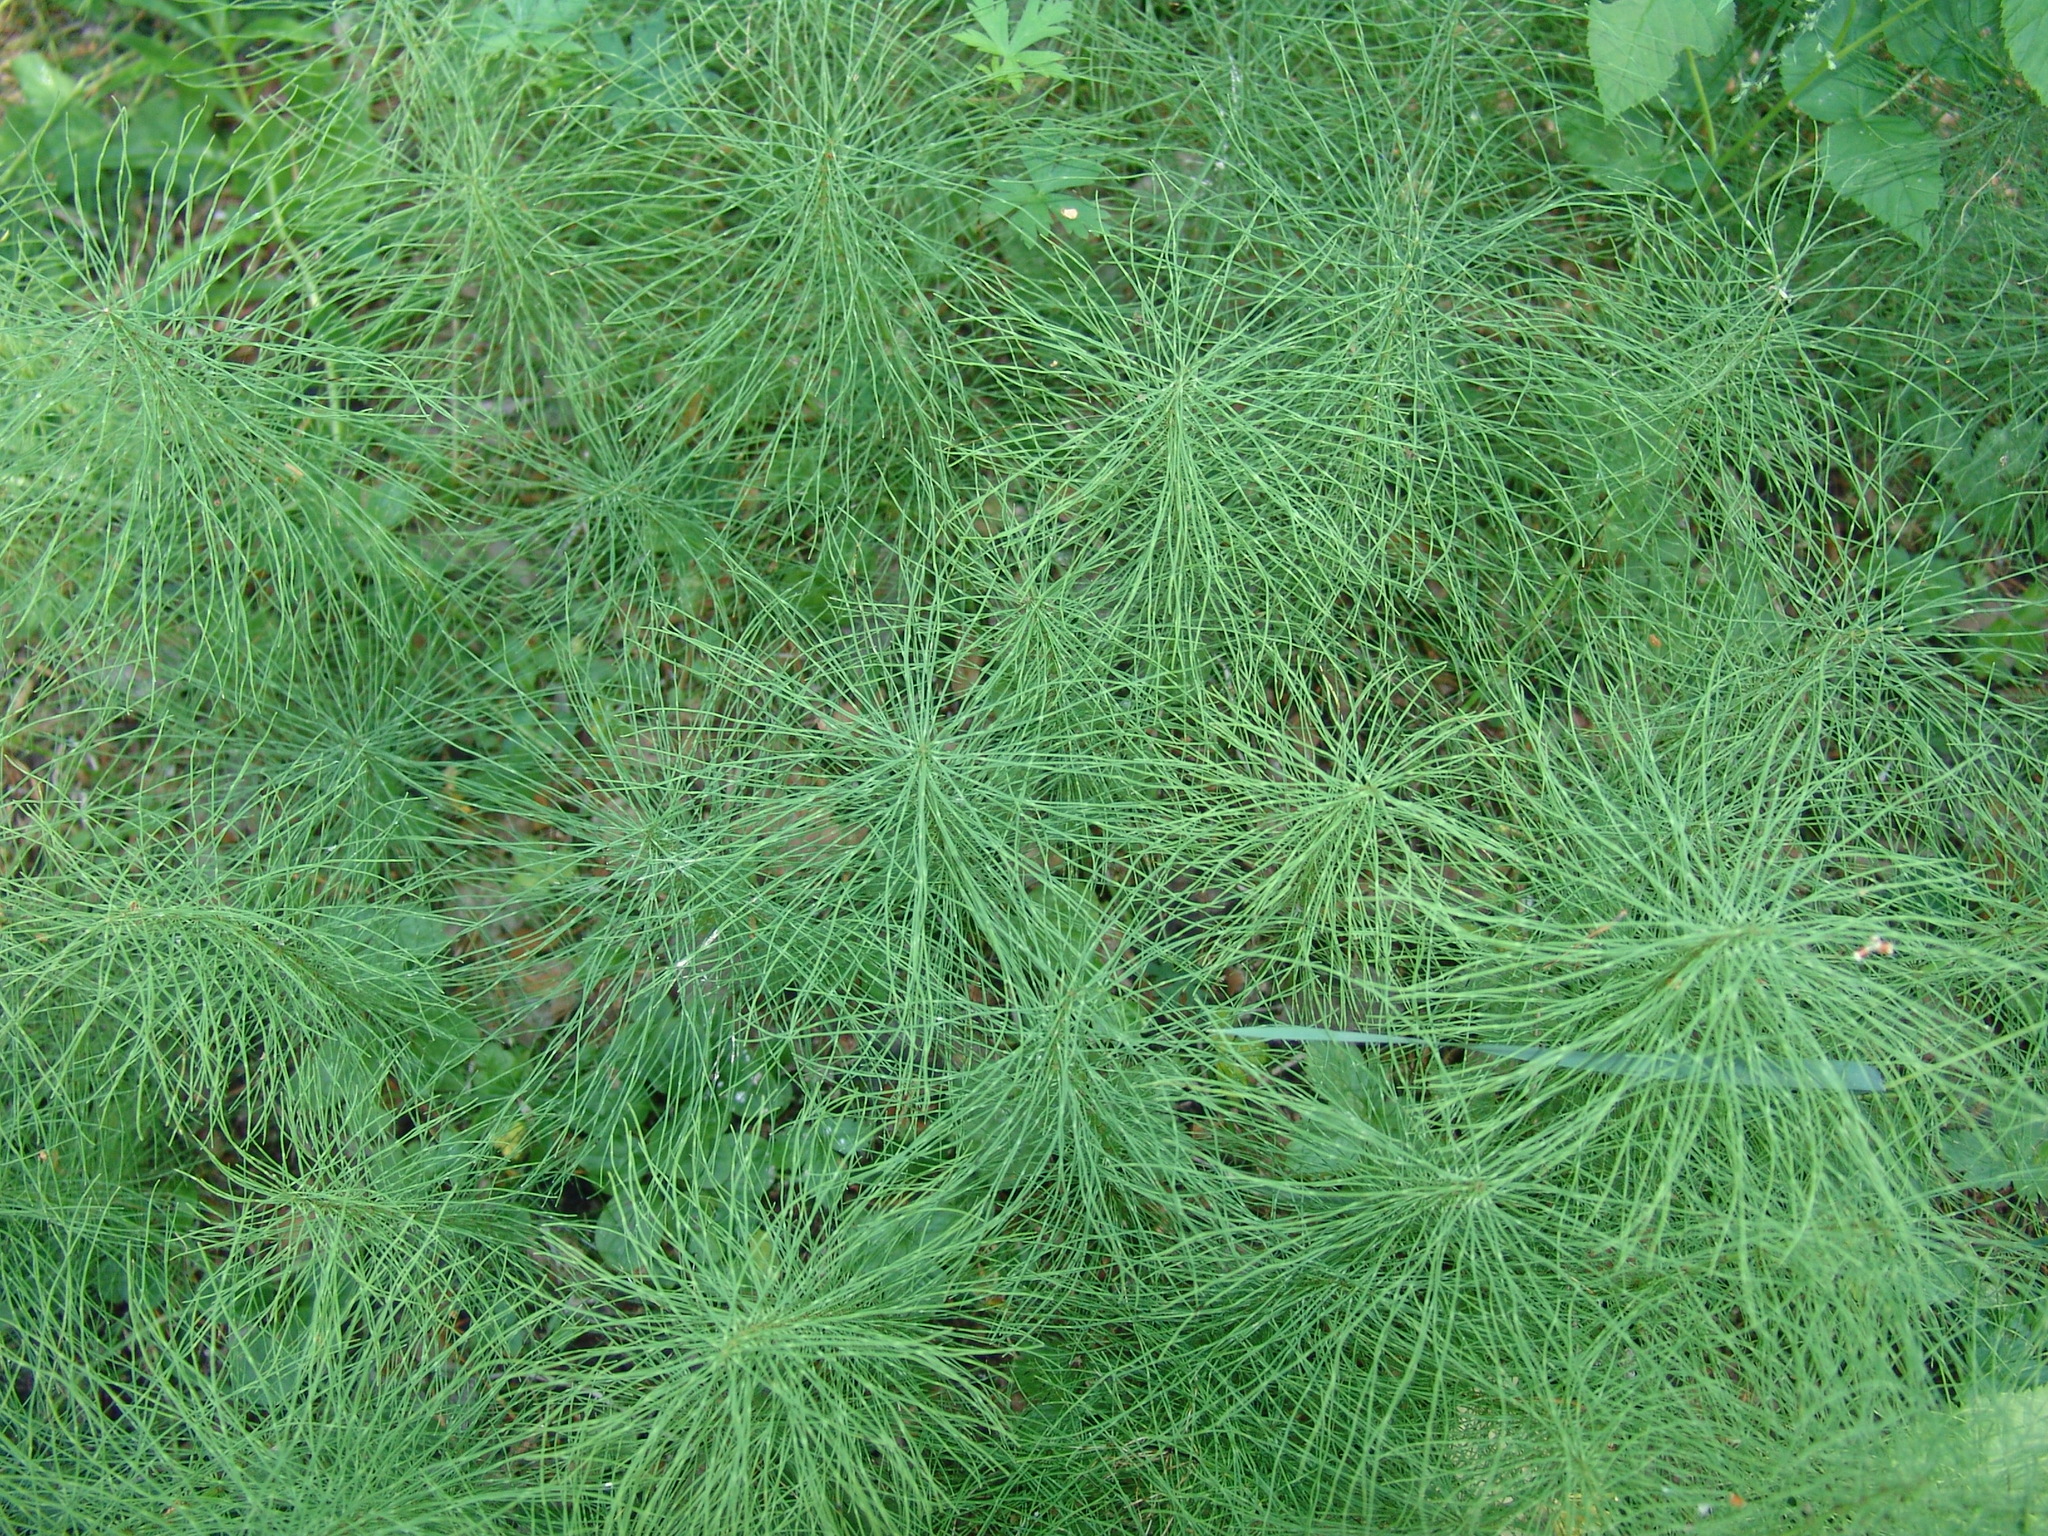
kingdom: Plantae
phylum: Tracheophyta
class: Polypodiopsida
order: Equisetales
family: Equisetaceae
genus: Equisetum
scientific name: Equisetum pratense
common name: Meadow horsetail
